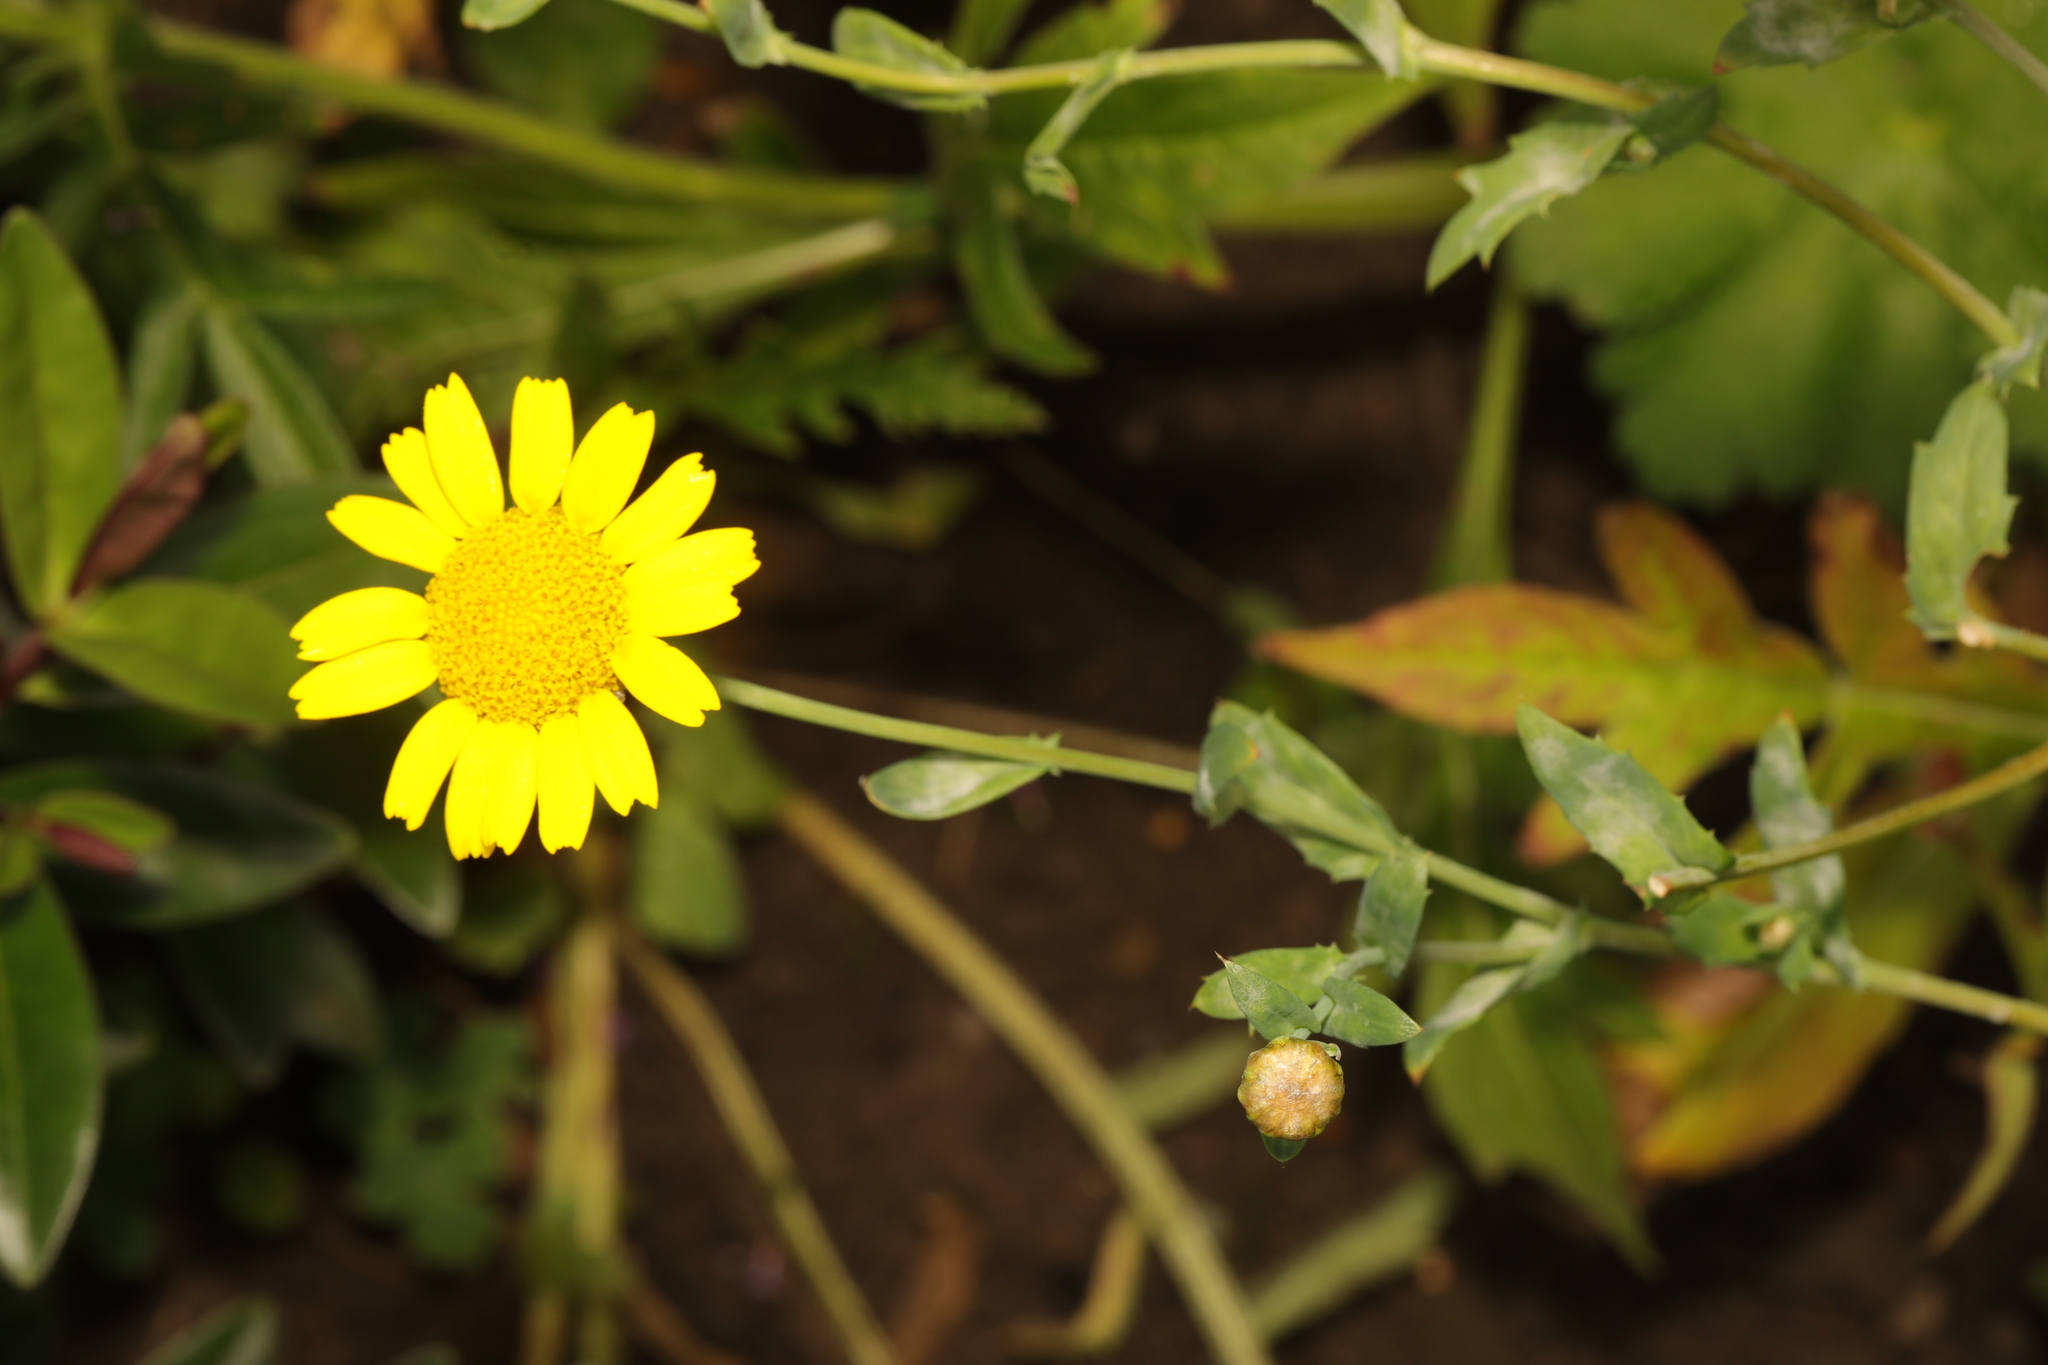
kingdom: Plantae
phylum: Tracheophyta
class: Magnoliopsida
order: Asterales
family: Asteraceae
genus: Glebionis
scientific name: Glebionis segetum
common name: Corndaisy
